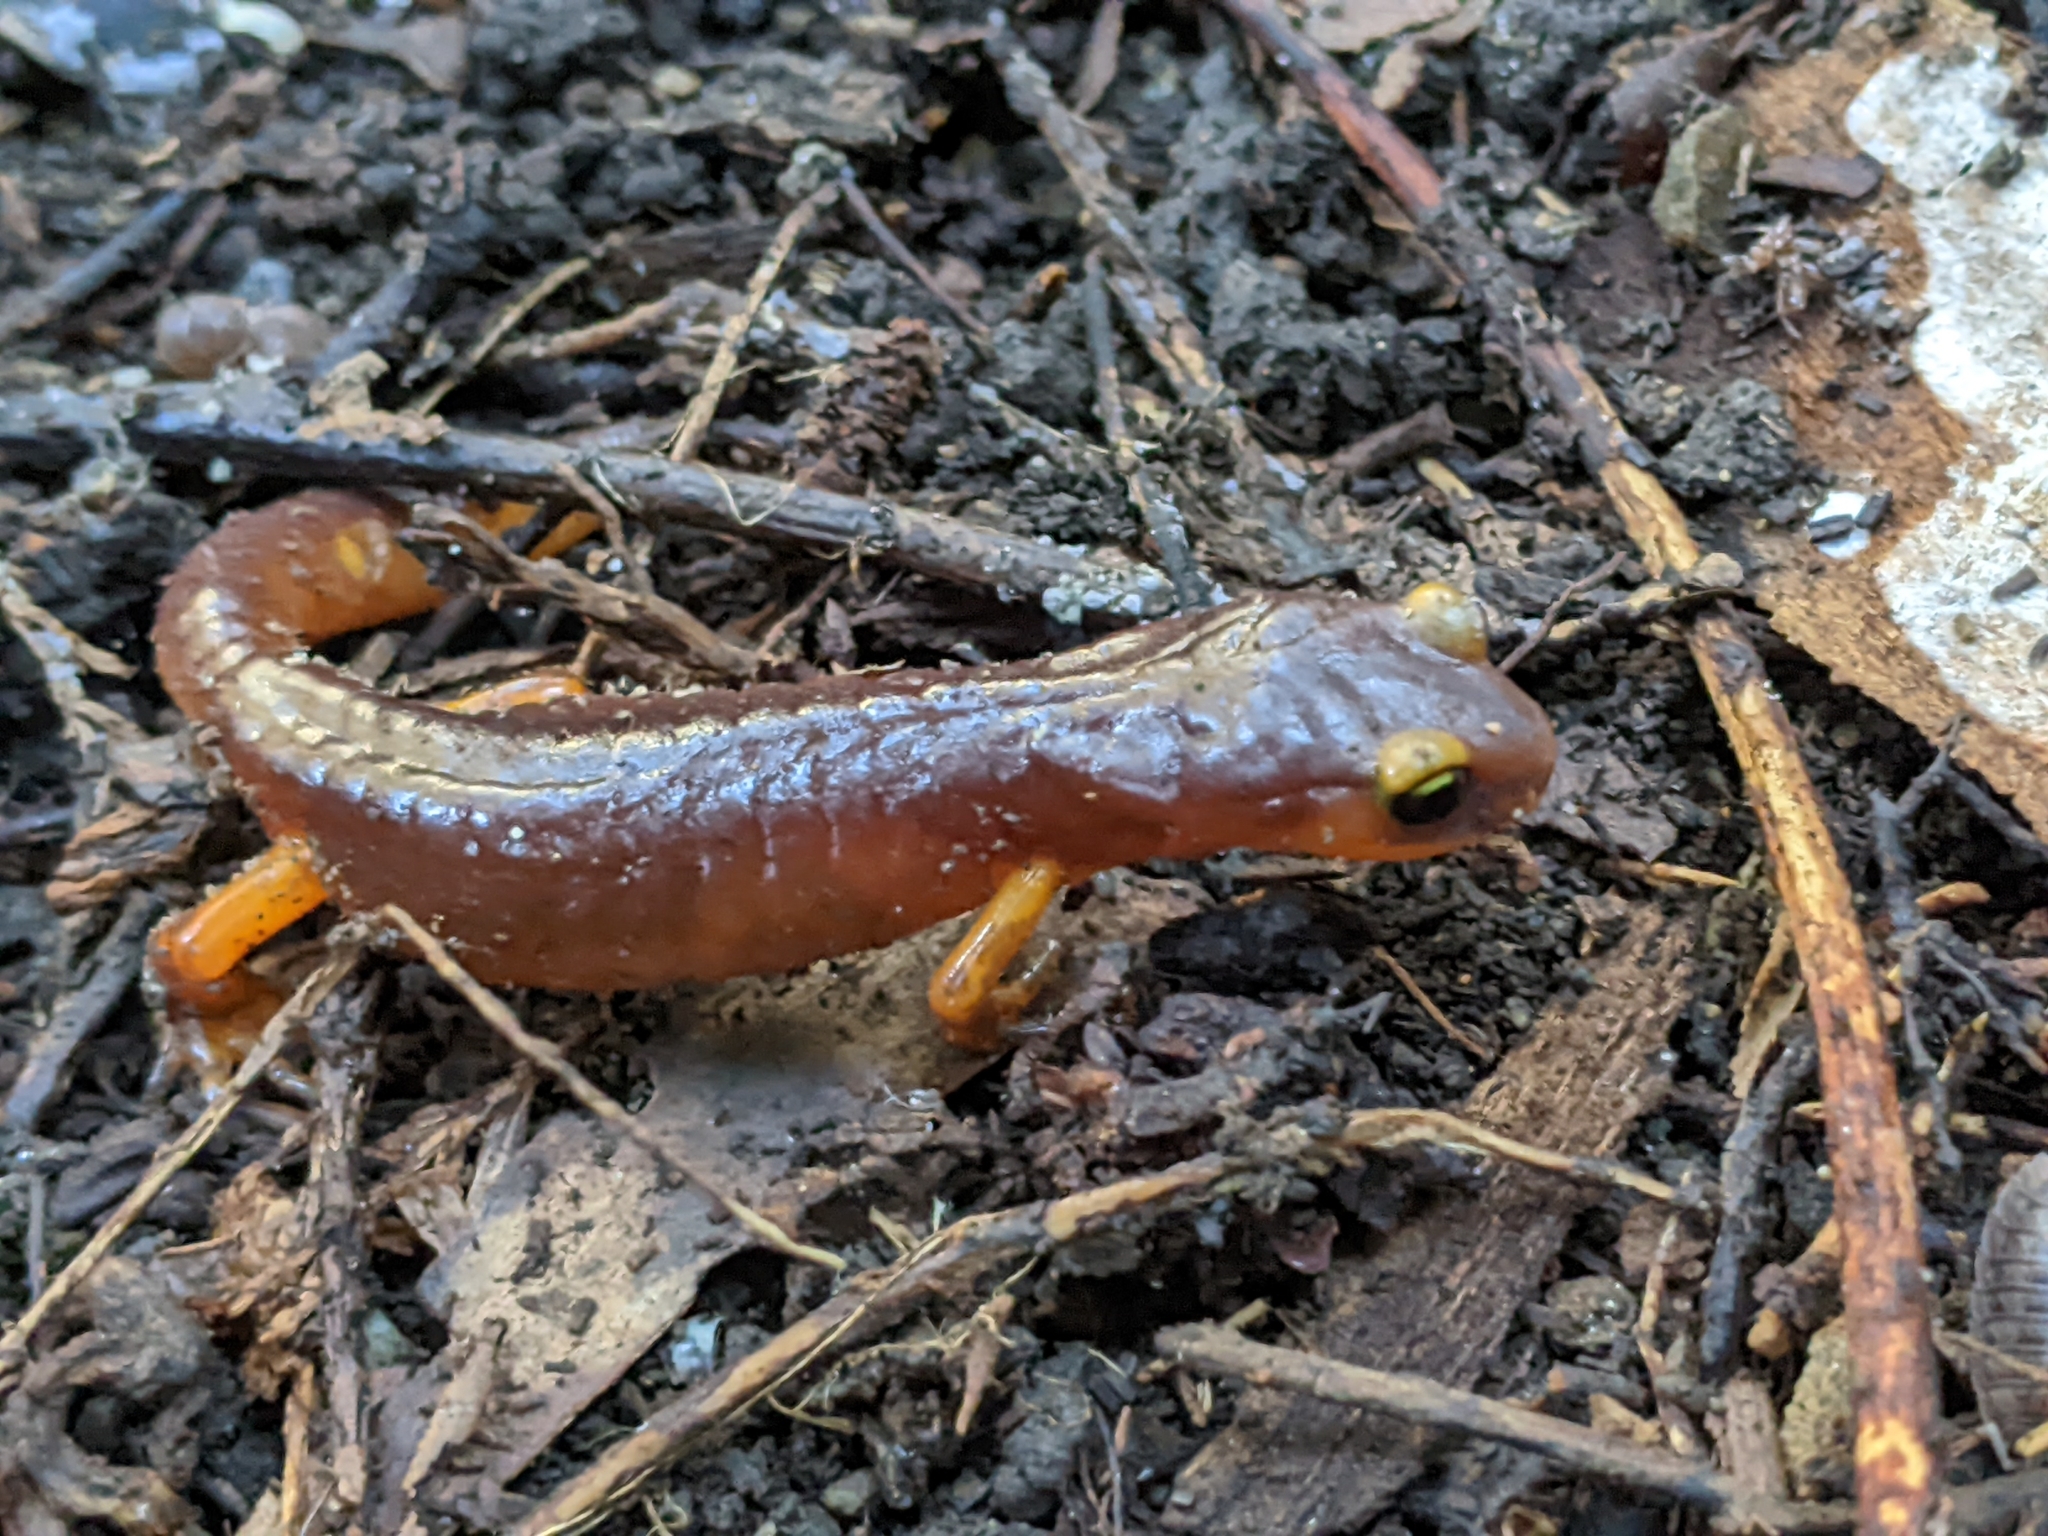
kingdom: Animalia
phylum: Chordata
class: Amphibia
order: Caudata
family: Plethodontidae
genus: Ensatina
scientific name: Ensatina eschscholtzii
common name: Ensatina
